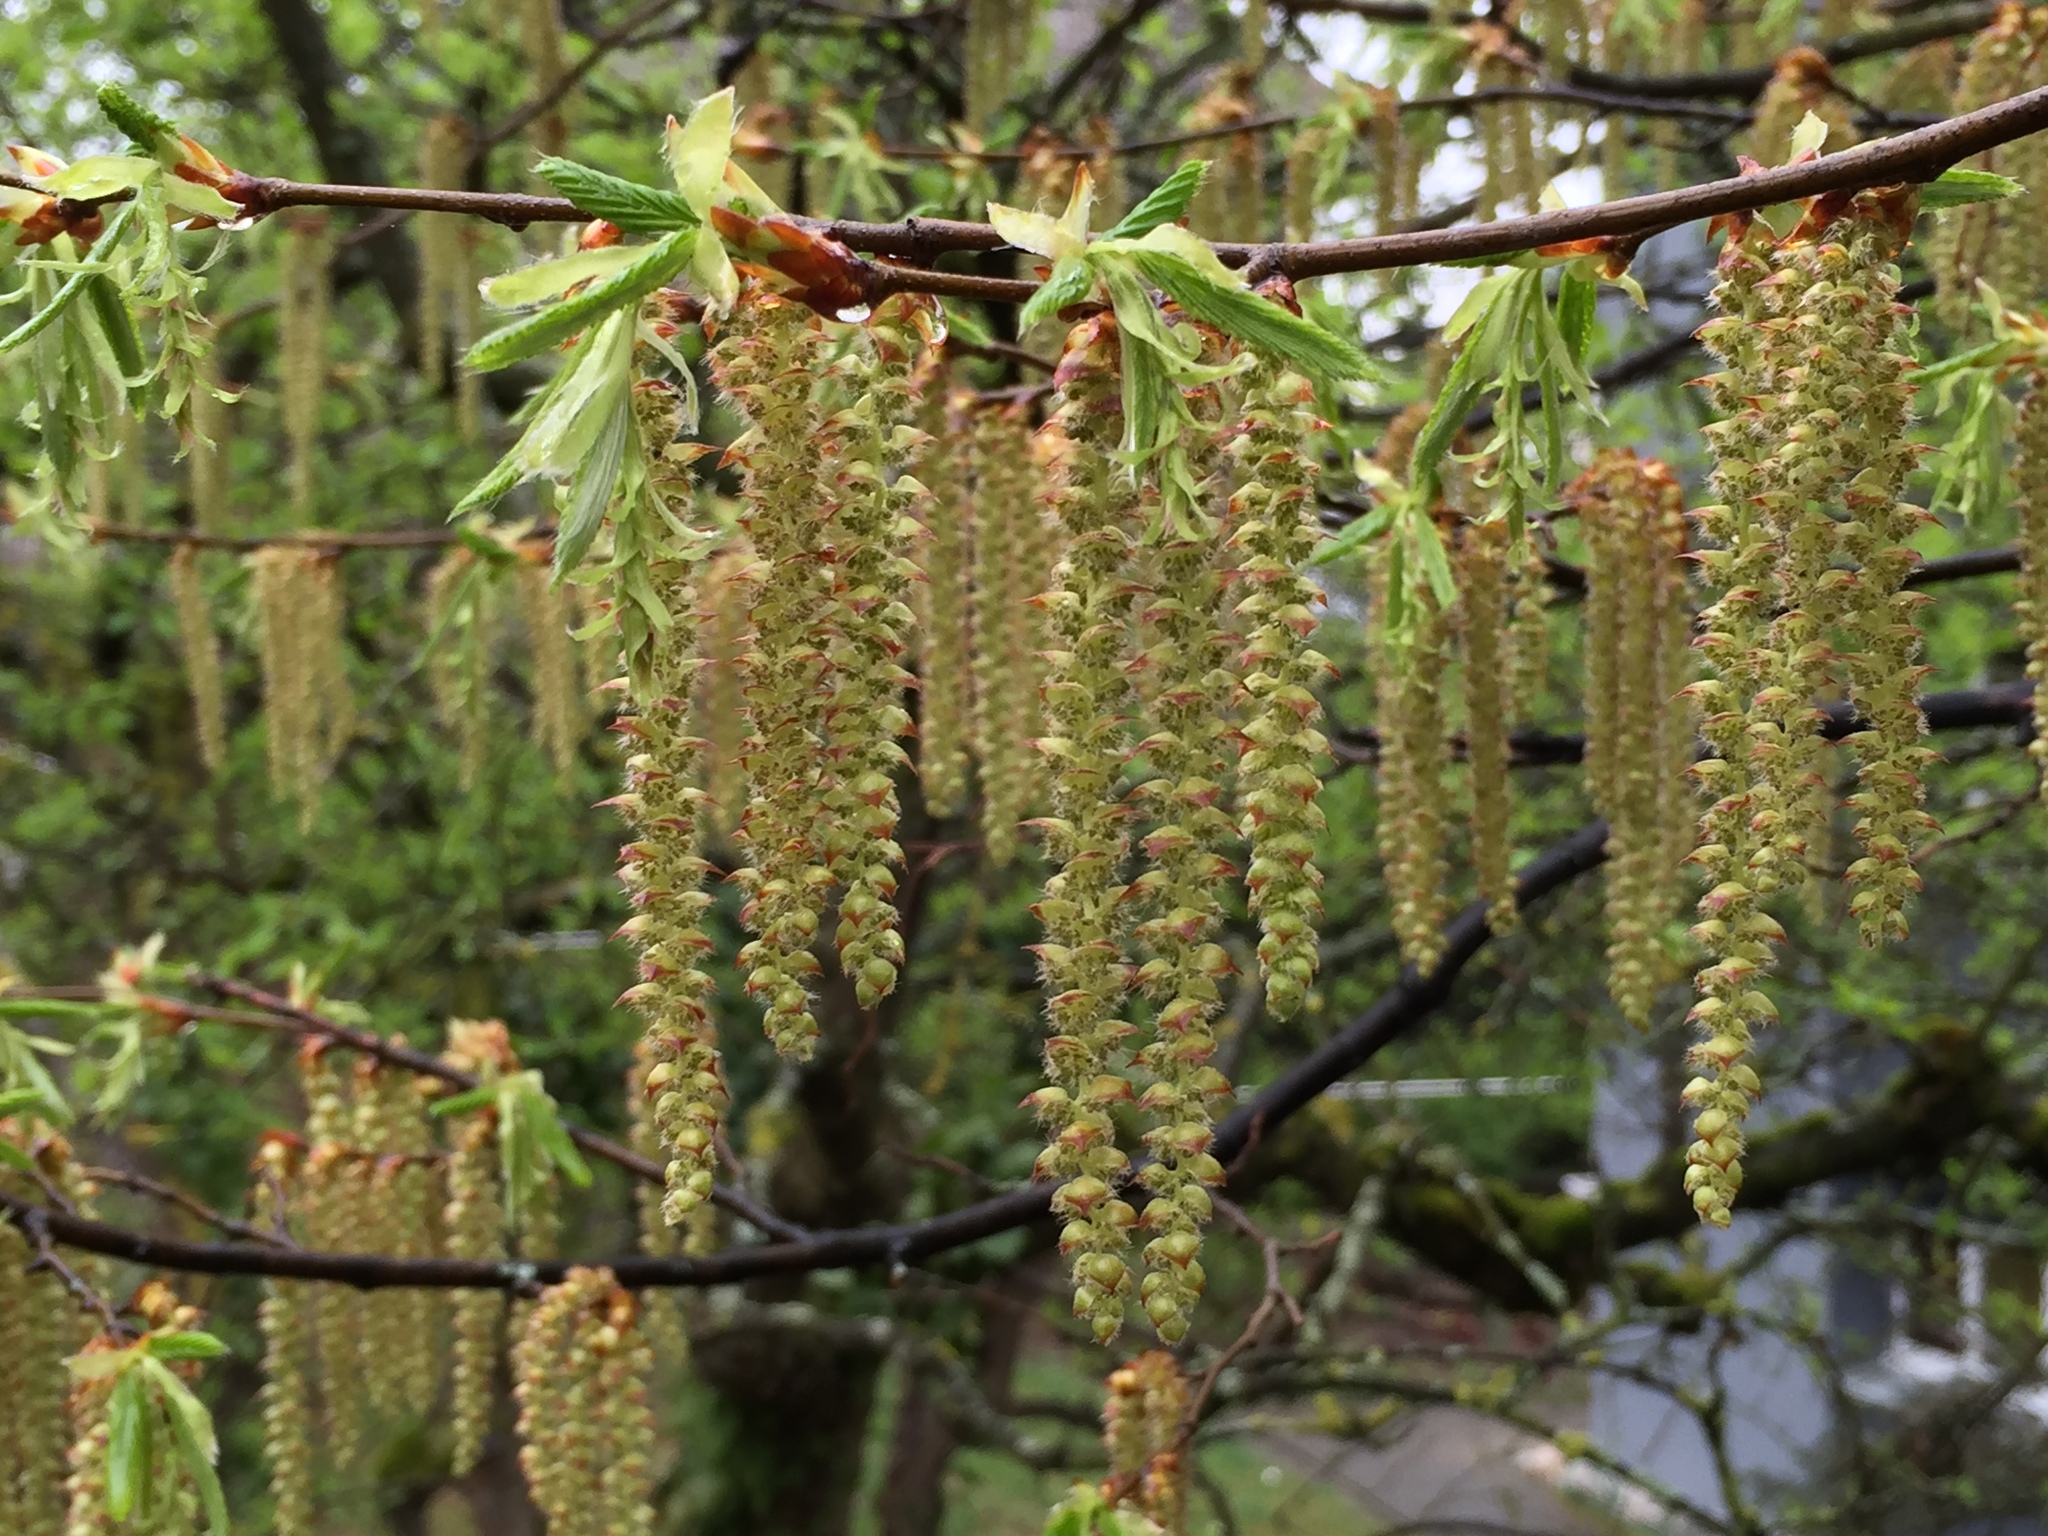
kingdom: Plantae
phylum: Tracheophyta
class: Magnoliopsida
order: Fagales
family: Betulaceae
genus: Carpinus
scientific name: Carpinus betulus
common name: Hornbeam
